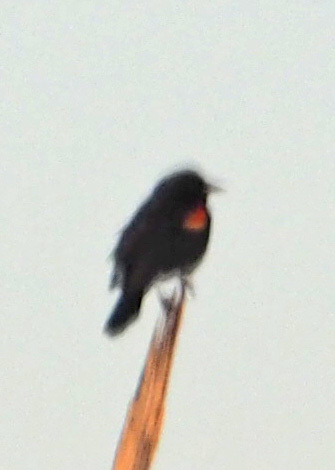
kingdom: Animalia
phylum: Chordata
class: Aves
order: Passeriformes
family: Icteridae
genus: Agelaius
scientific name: Agelaius phoeniceus
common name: Red-winged blackbird
